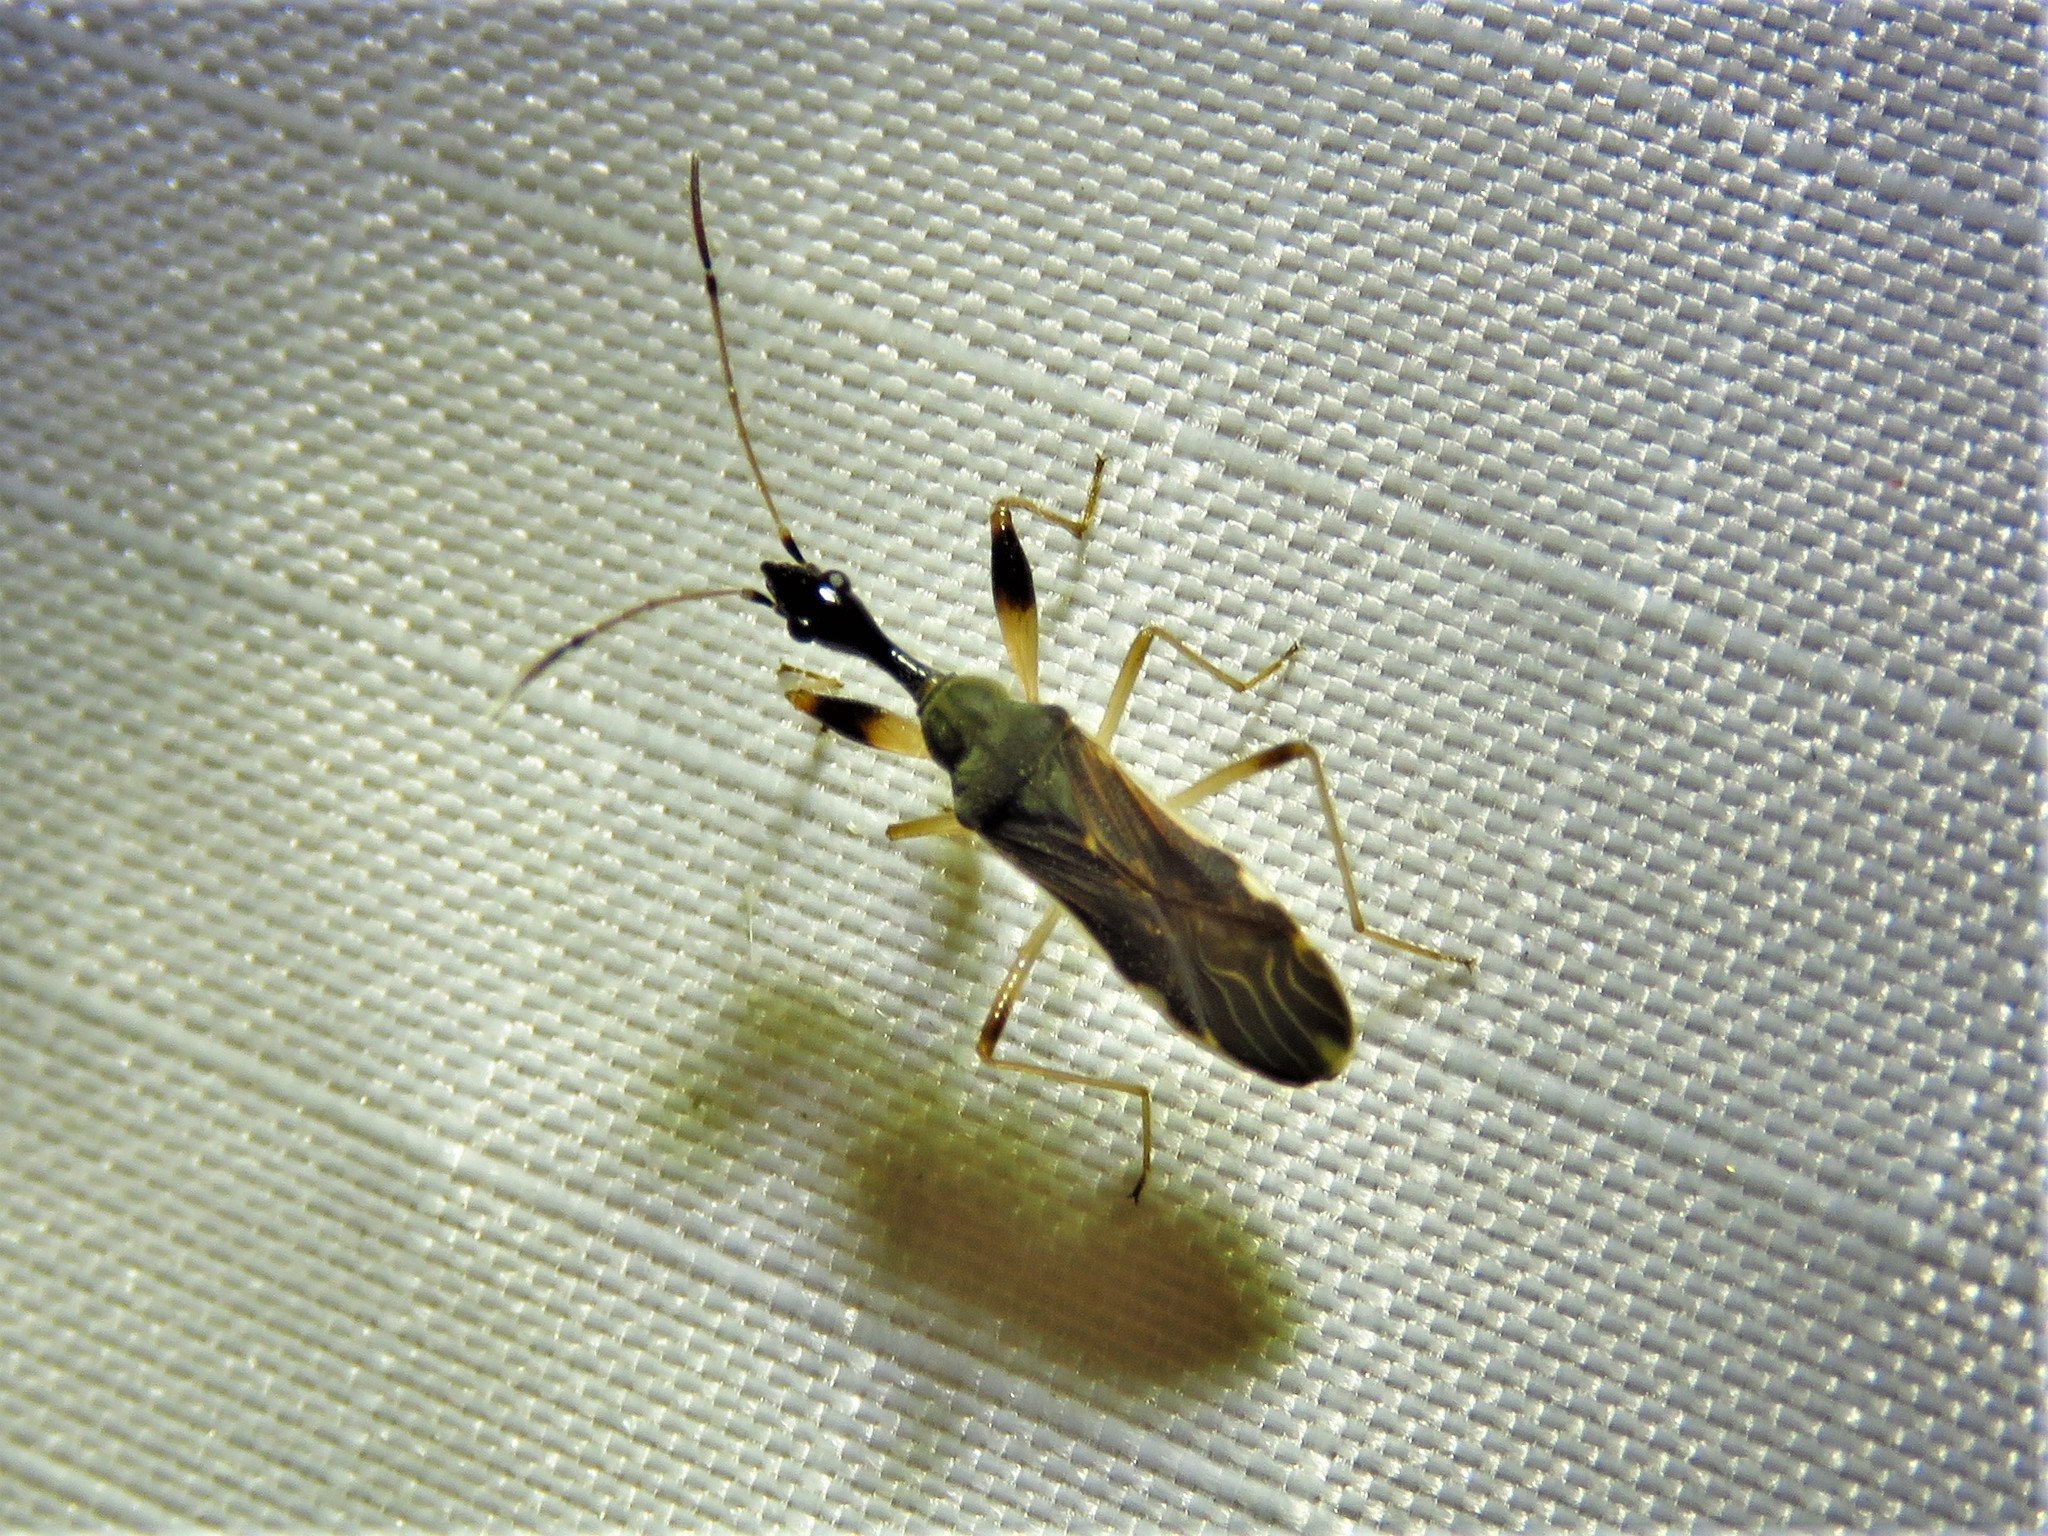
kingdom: Animalia
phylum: Arthropoda
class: Insecta
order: Hemiptera
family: Rhyparochromidae
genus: Myodocha
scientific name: Myodocha serripes
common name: Long-necked seed bug
